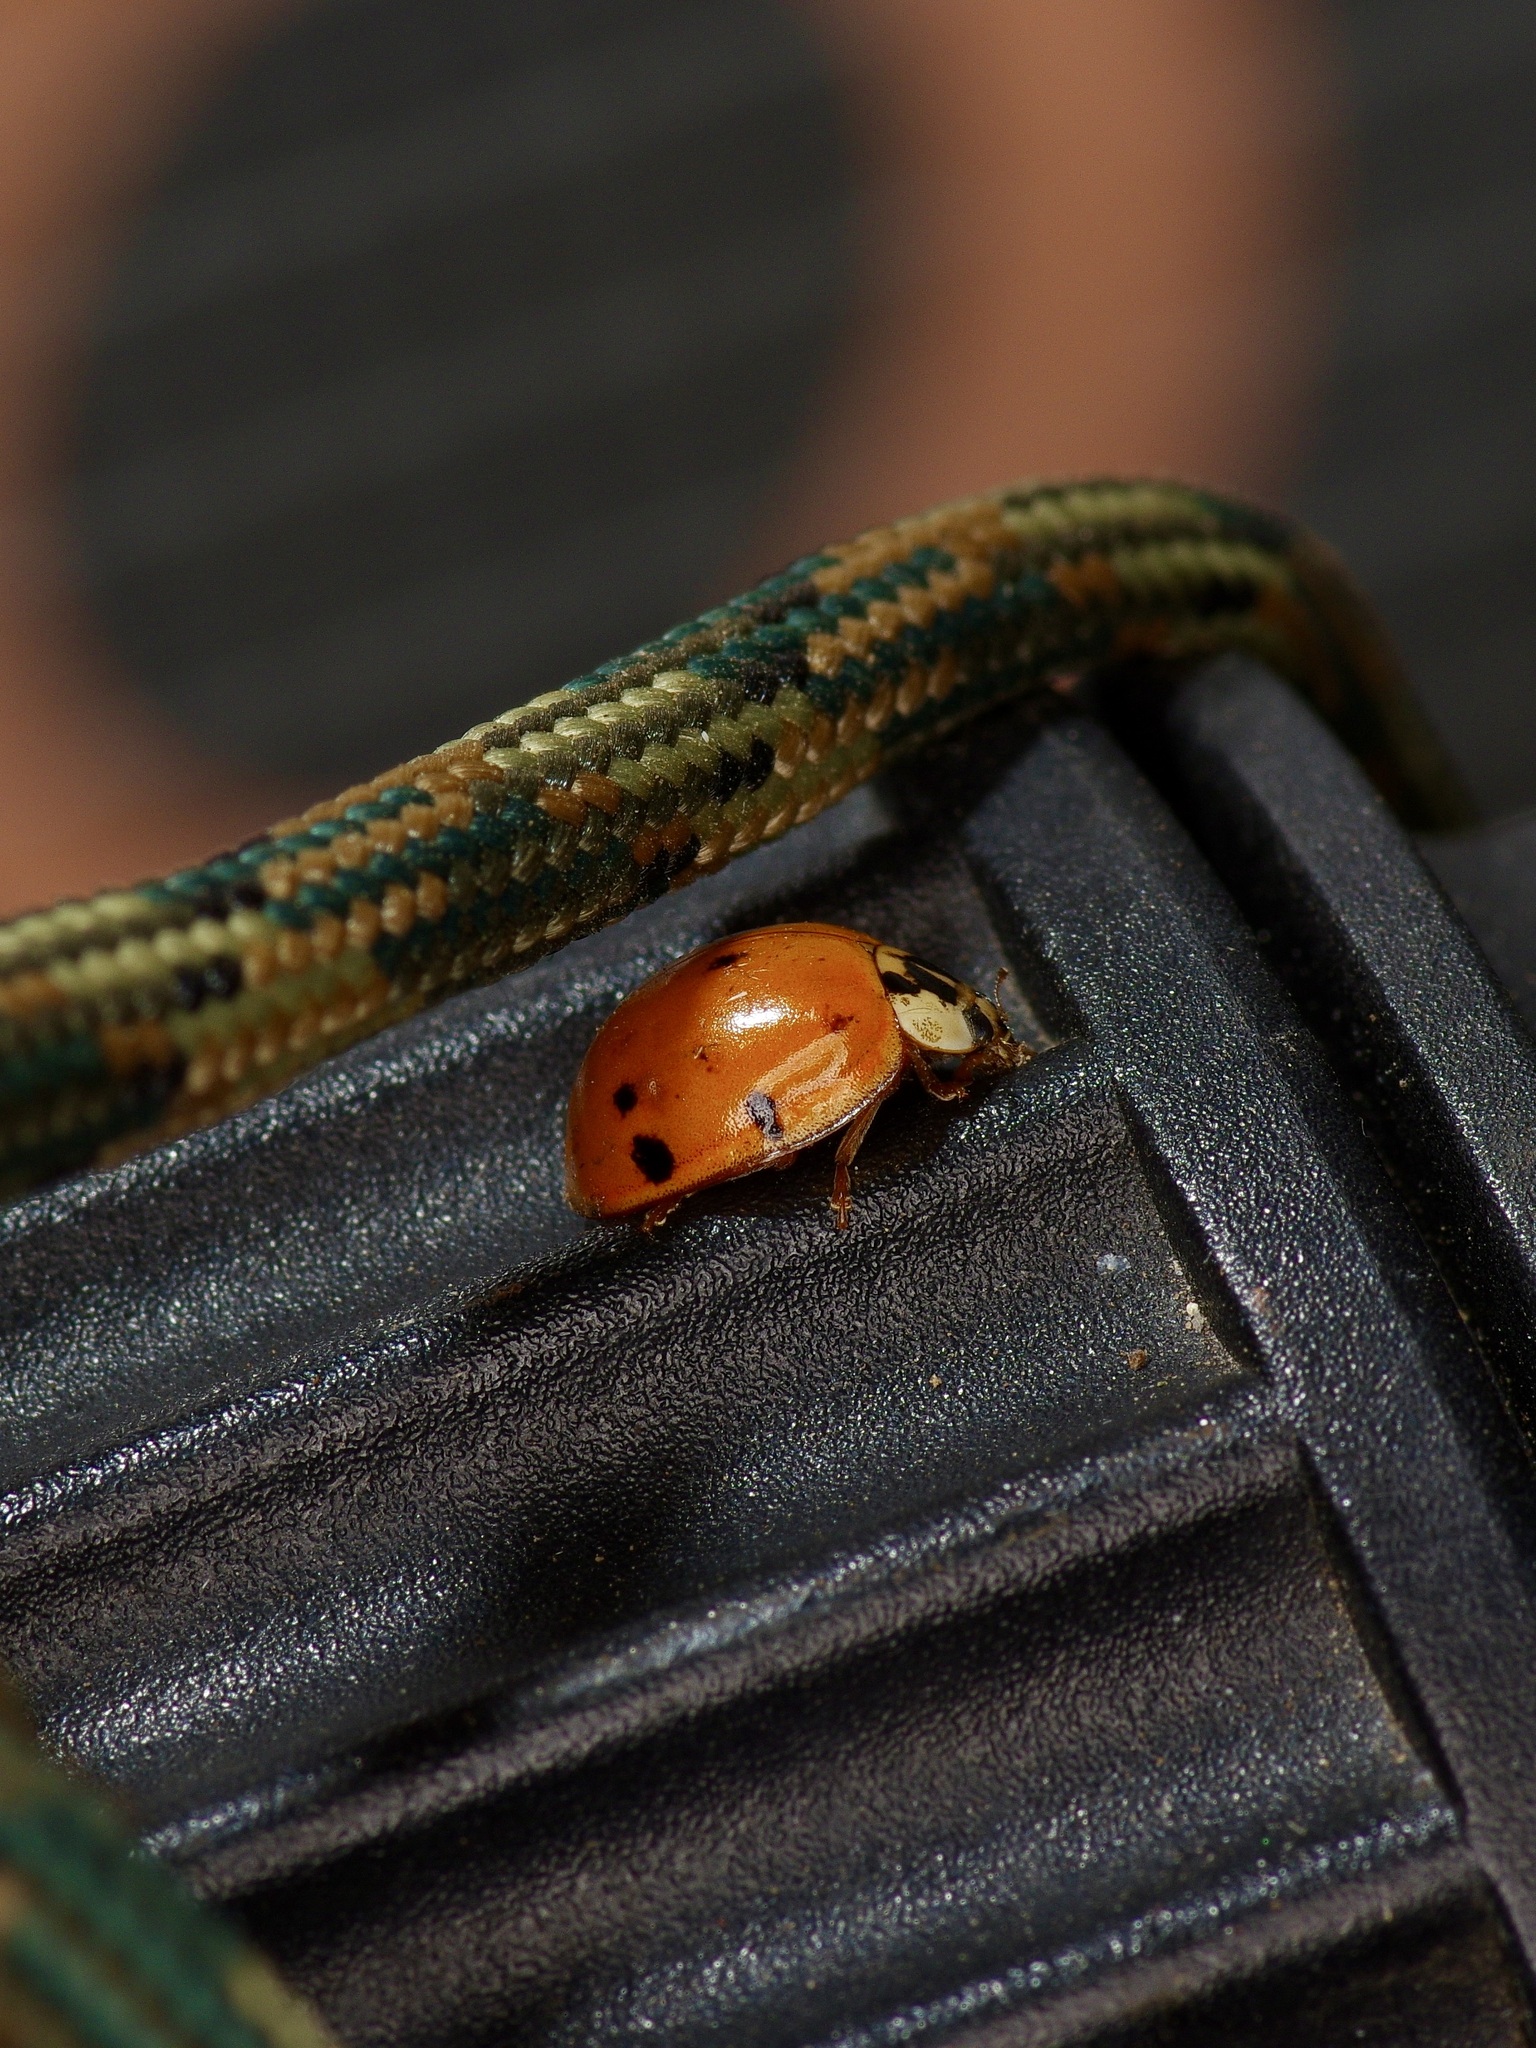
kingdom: Animalia
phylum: Arthropoda
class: Insecta
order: Coleoptera
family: Coccinellidae
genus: Harmonia
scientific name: Harmonia axyridis
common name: Harlequin ladybird
